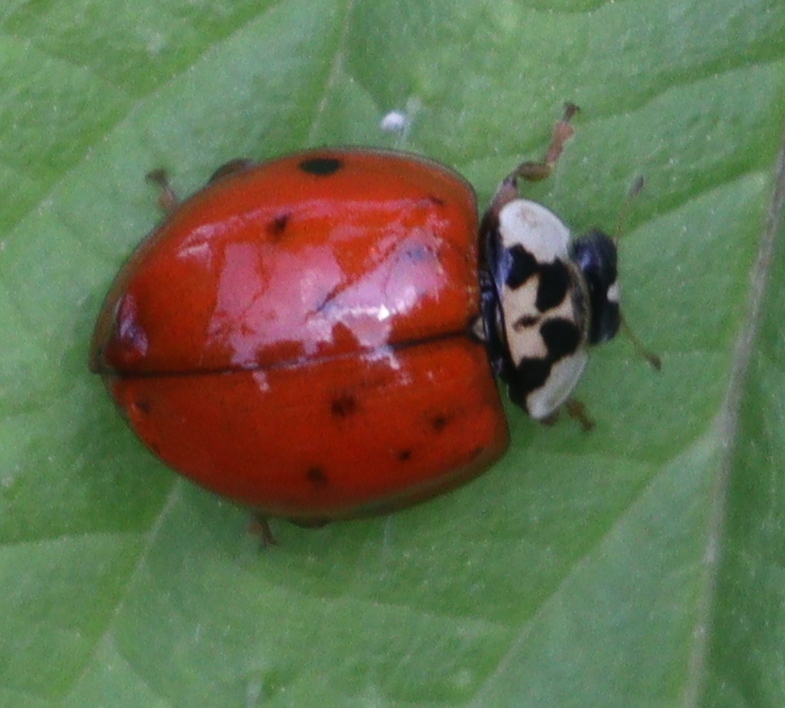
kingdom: Animalia
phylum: Arthropoda
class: Insecta
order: Coleoptera
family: Coccinellidae
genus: Harmonia
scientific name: Harmonia axyridis
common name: Harlequin ladybird
